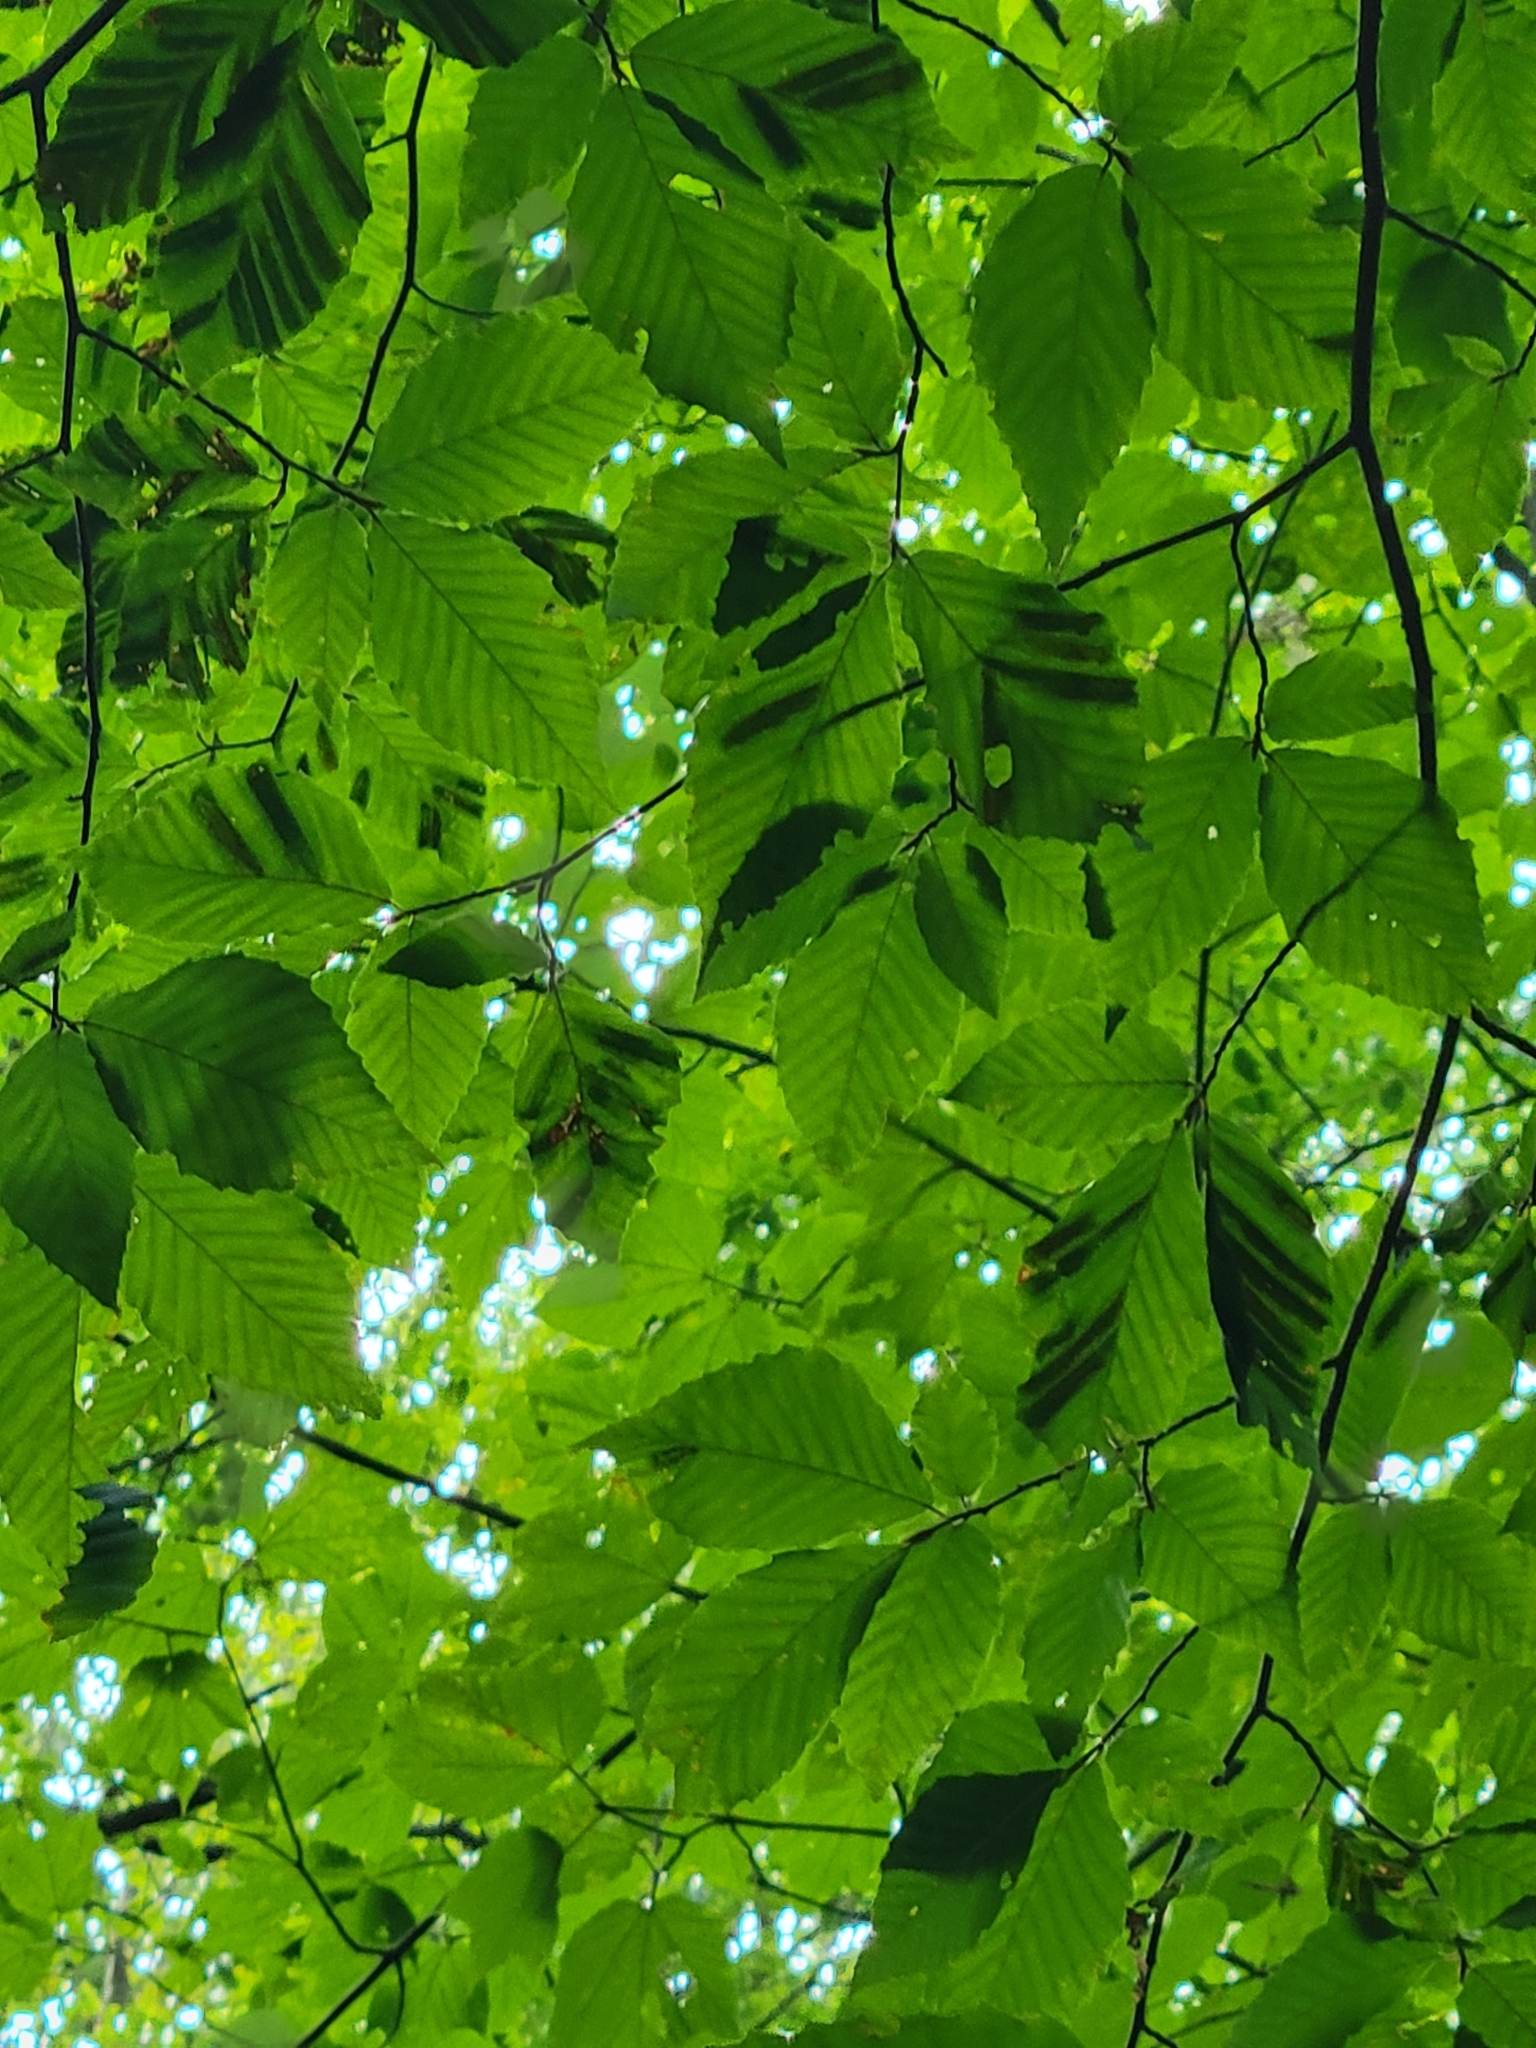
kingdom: Animalia
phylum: Nematoda
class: Chromadorea
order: Rhabditida
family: Anguinidae
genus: Litylenchus
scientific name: Litylenchus crenatae
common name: Beech leaf disease
